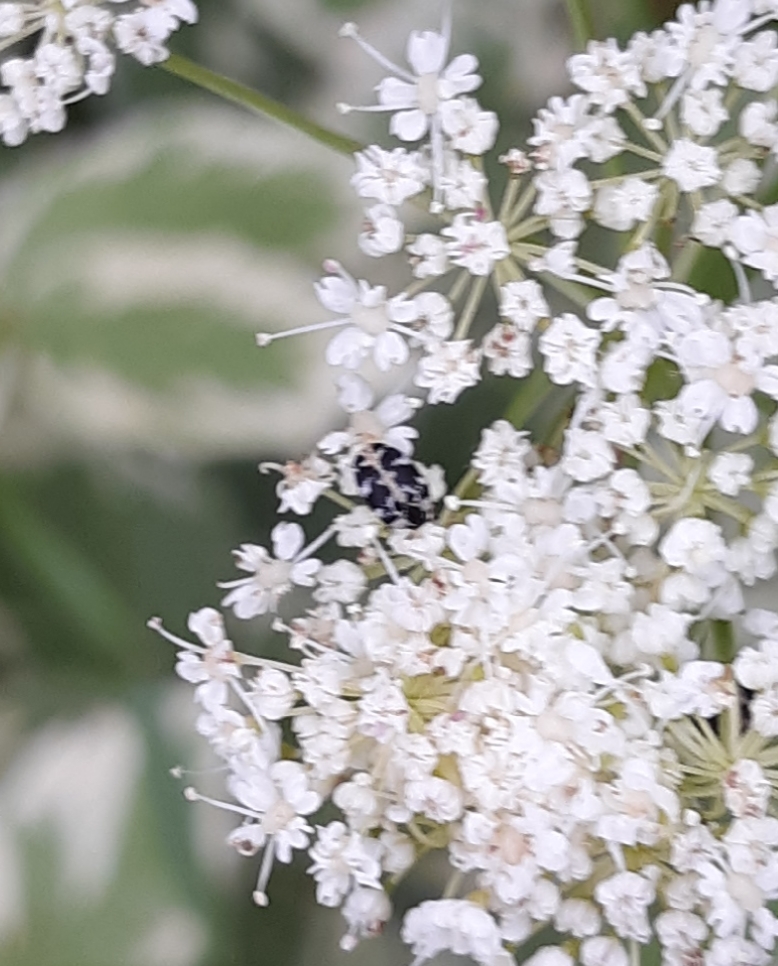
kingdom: Animalia
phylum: Arthropoda
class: Insecta
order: Coleoptera
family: Dermestidae
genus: Anthrenus
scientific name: Anthrenus scrophulariae
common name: Buffalo carpet beetle
